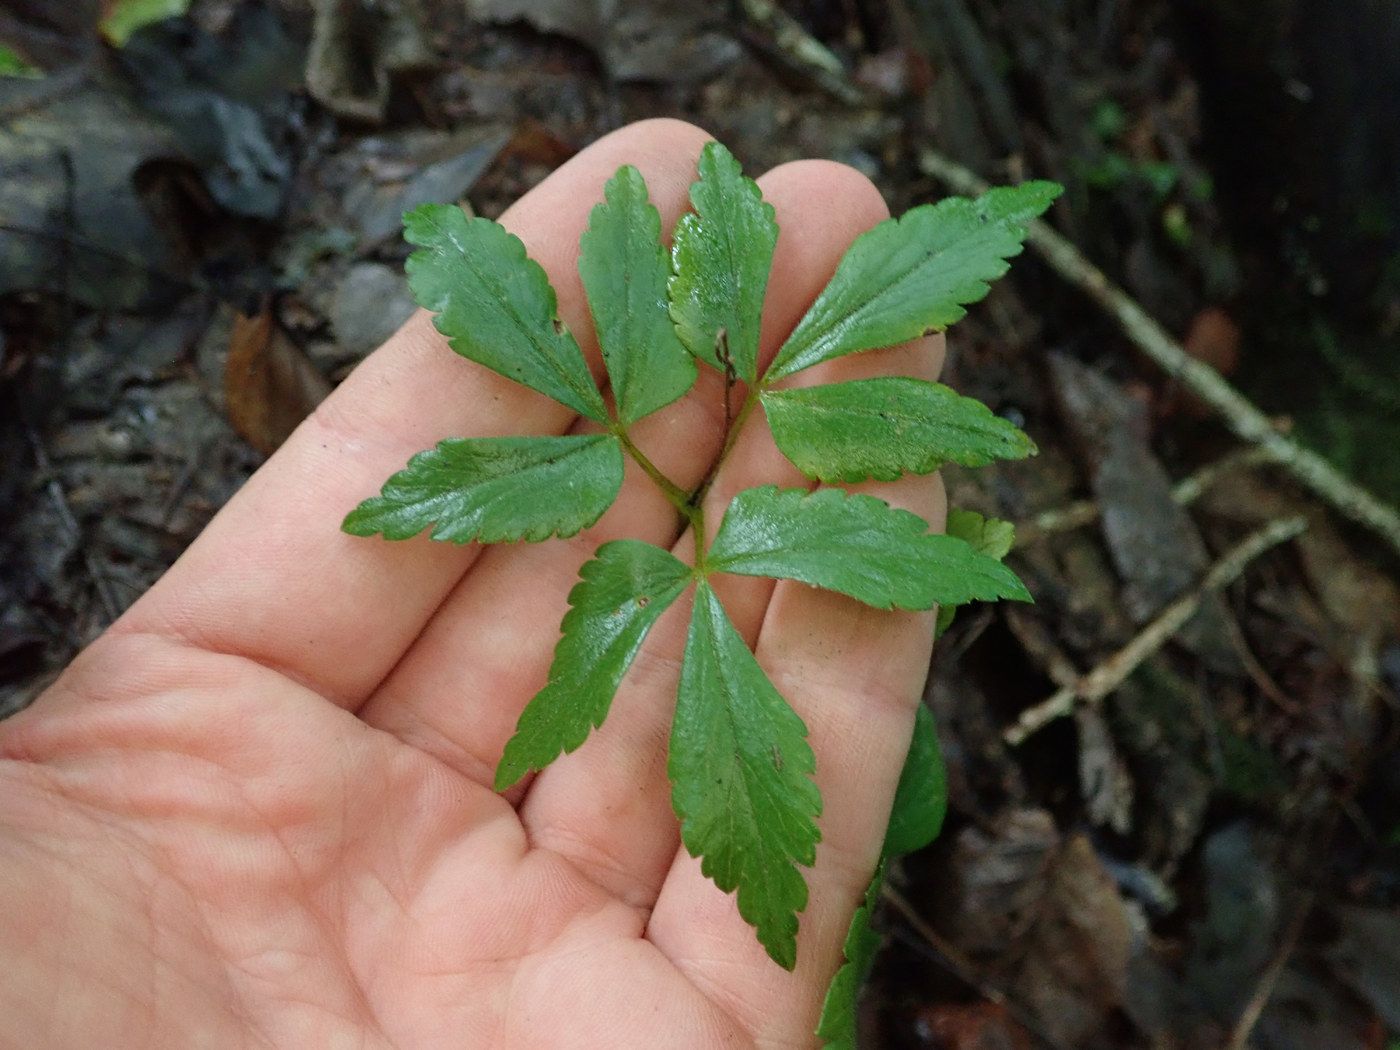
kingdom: Plantae
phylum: Tracheophyta
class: Magnoliopsida
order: Ranunculales
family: Ranunculaceae
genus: Anemone
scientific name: Anemone quinquefolia
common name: Wood anemone
